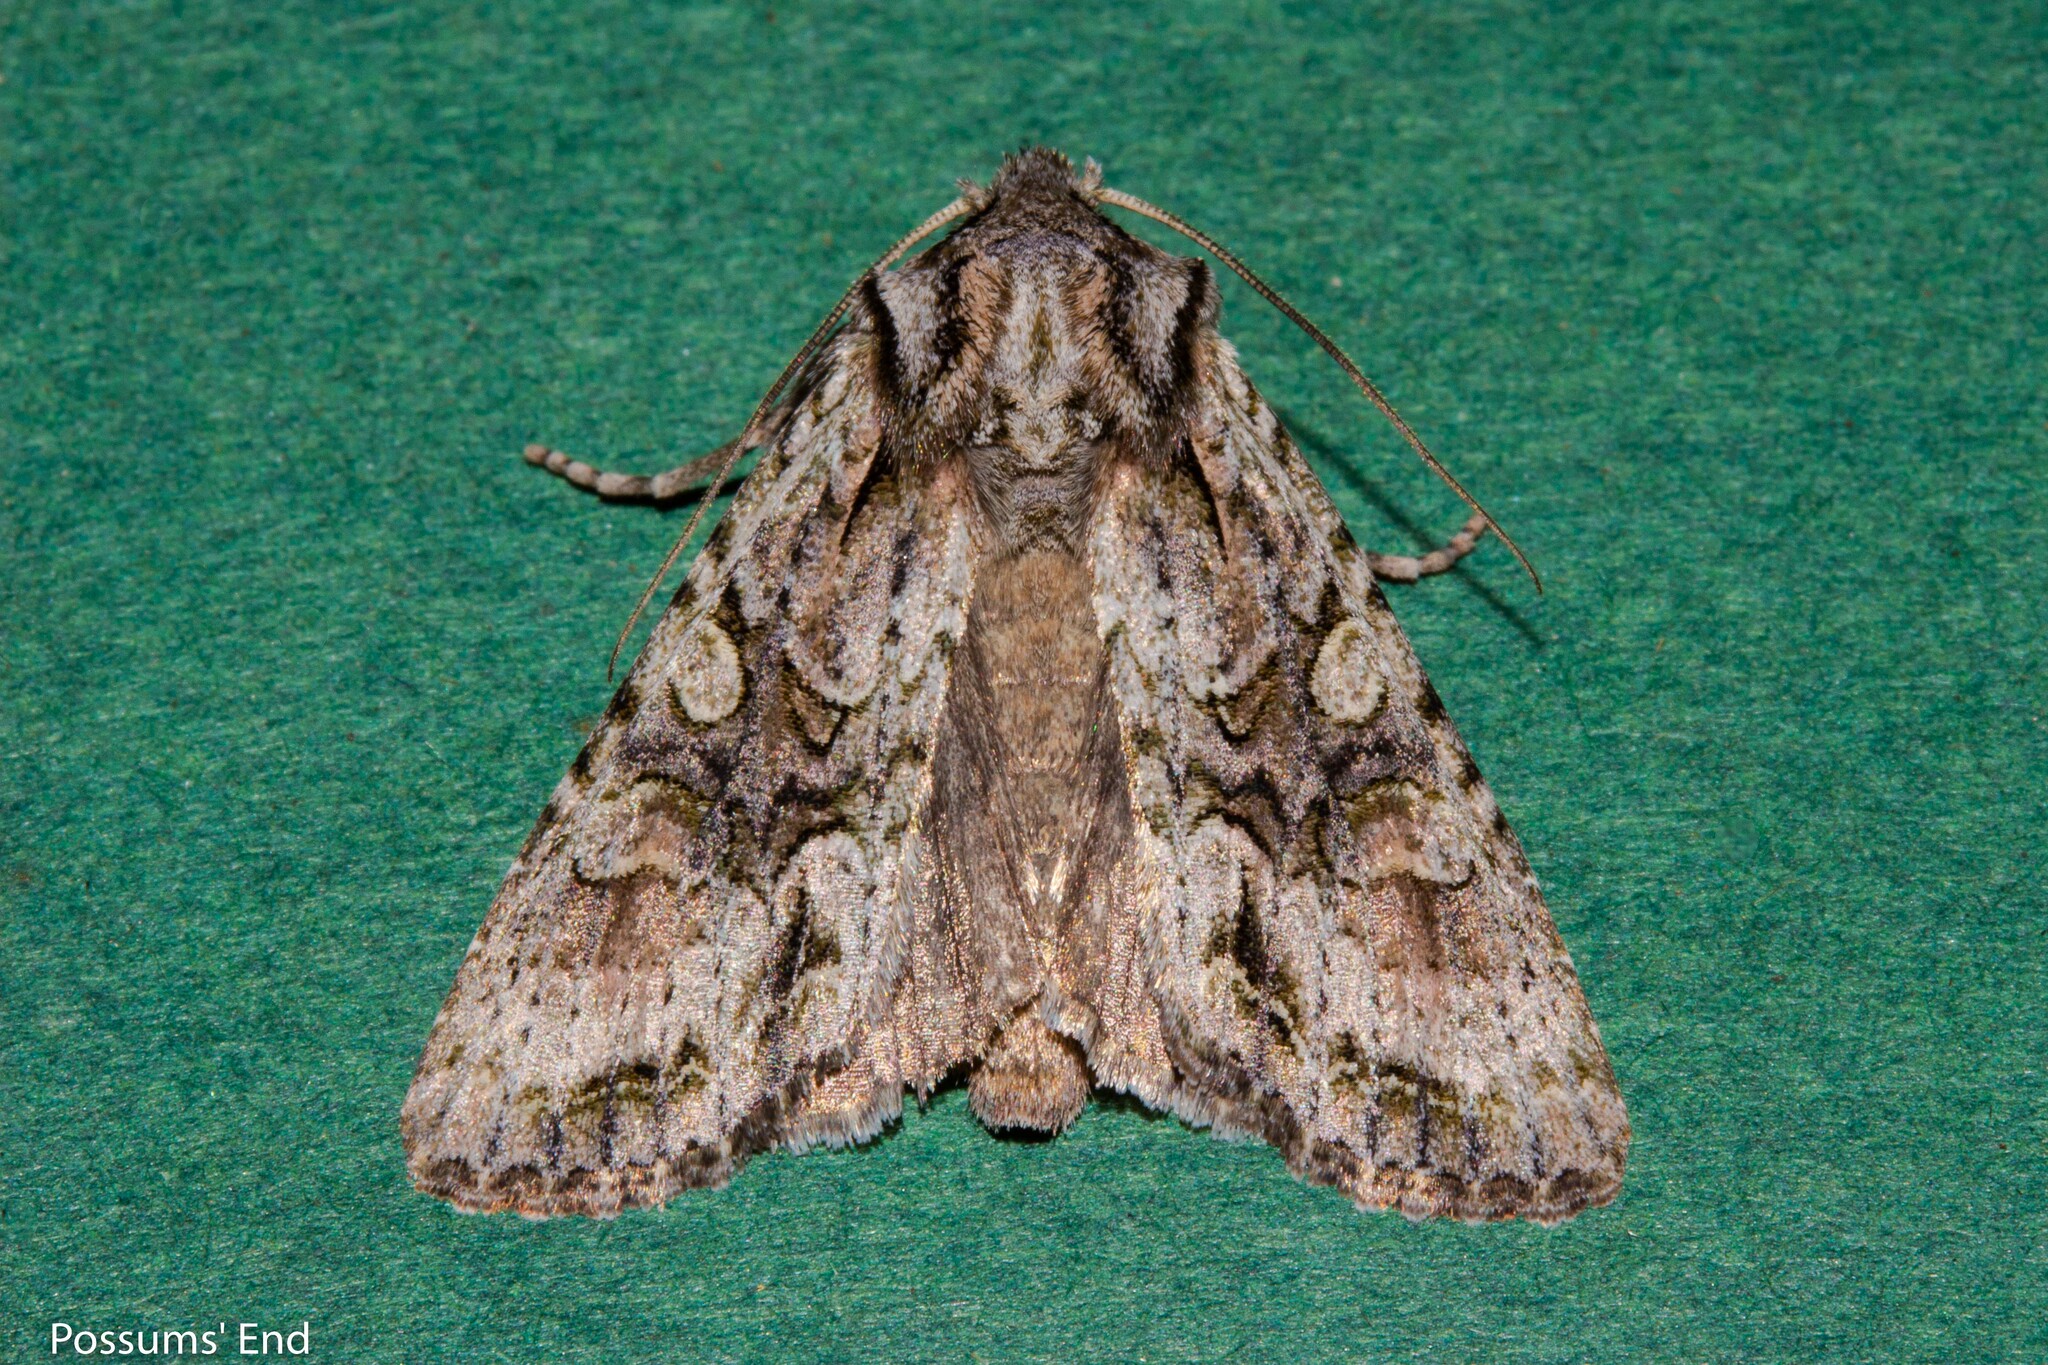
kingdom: Animalia
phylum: Arthropoda
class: Insecta
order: Lepidoptera
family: Noctuidae
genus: Ichneutica
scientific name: Ichneutica mutans
